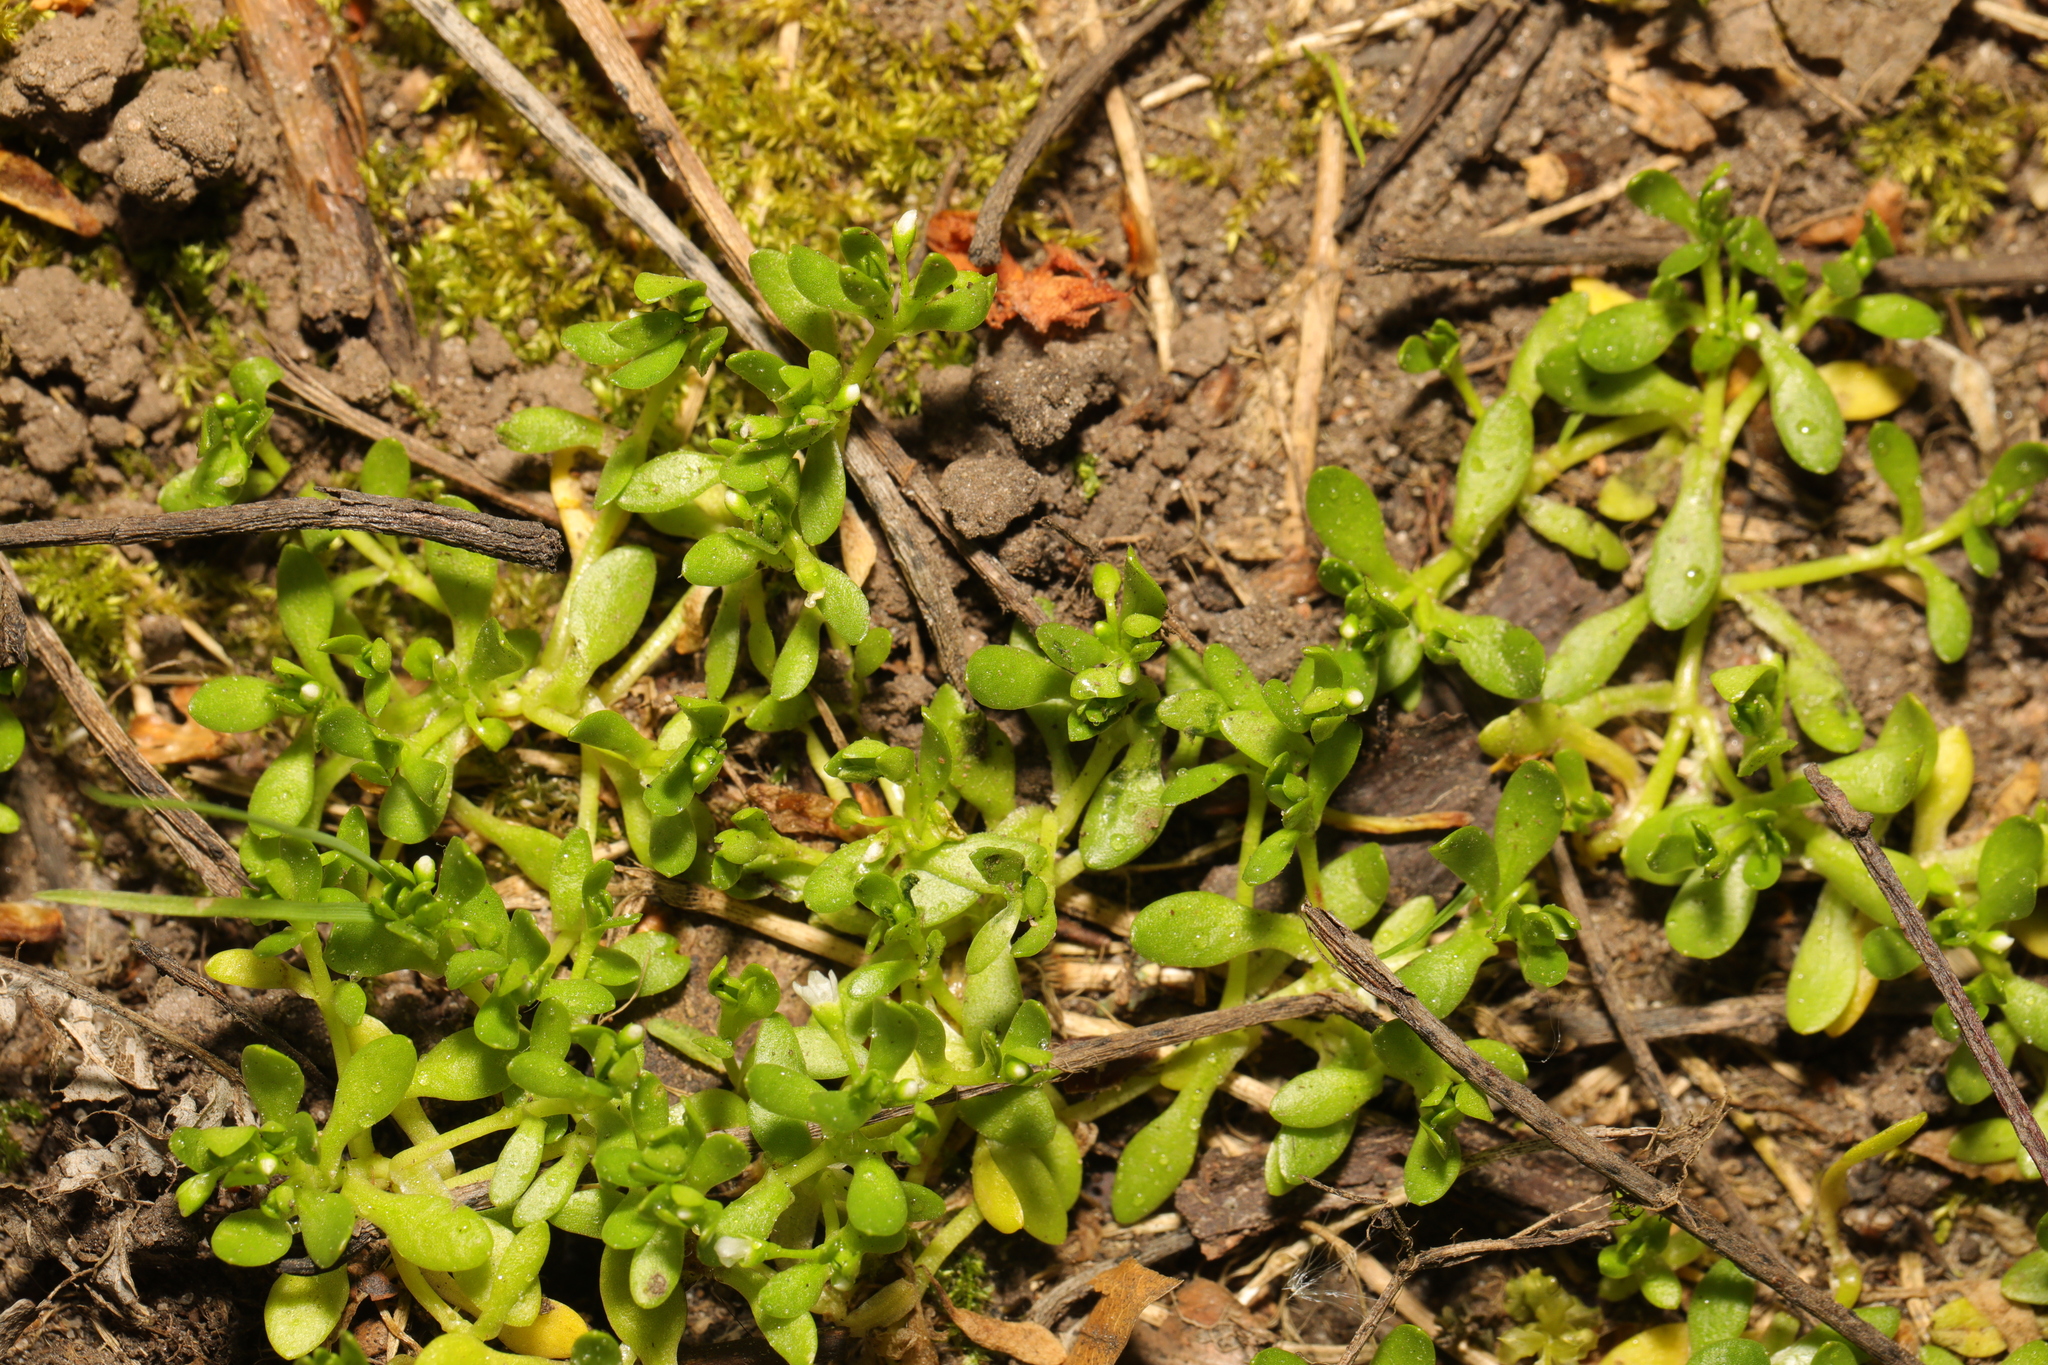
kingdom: Plantae
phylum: Tracheophyta
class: Magnoliopsida
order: Caryophyllales
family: Montiaceae
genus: Montia
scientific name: Montia fontana
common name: Blinks
